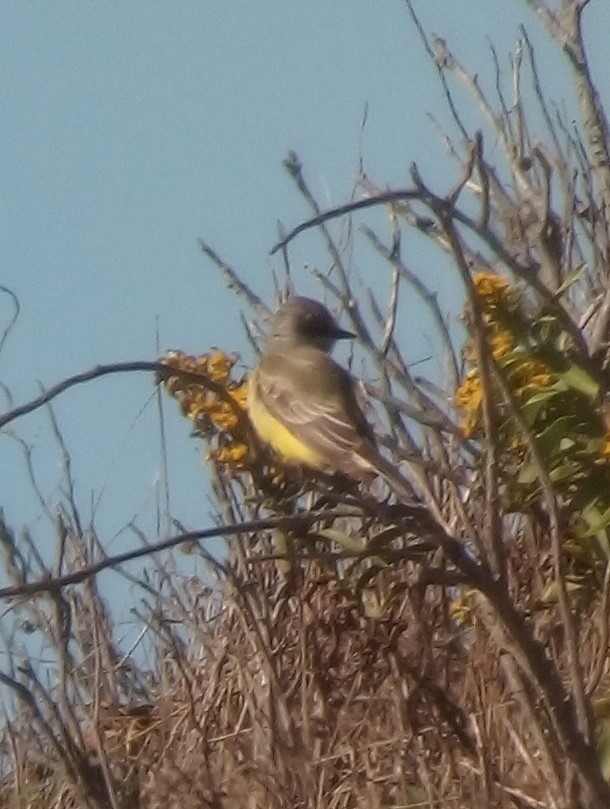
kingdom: Animalia
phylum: Chordata
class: Aves
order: Passeriformes
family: Tyrannidae
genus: Tyrannus
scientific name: Tyrannus verticalis
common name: Western kingbird
